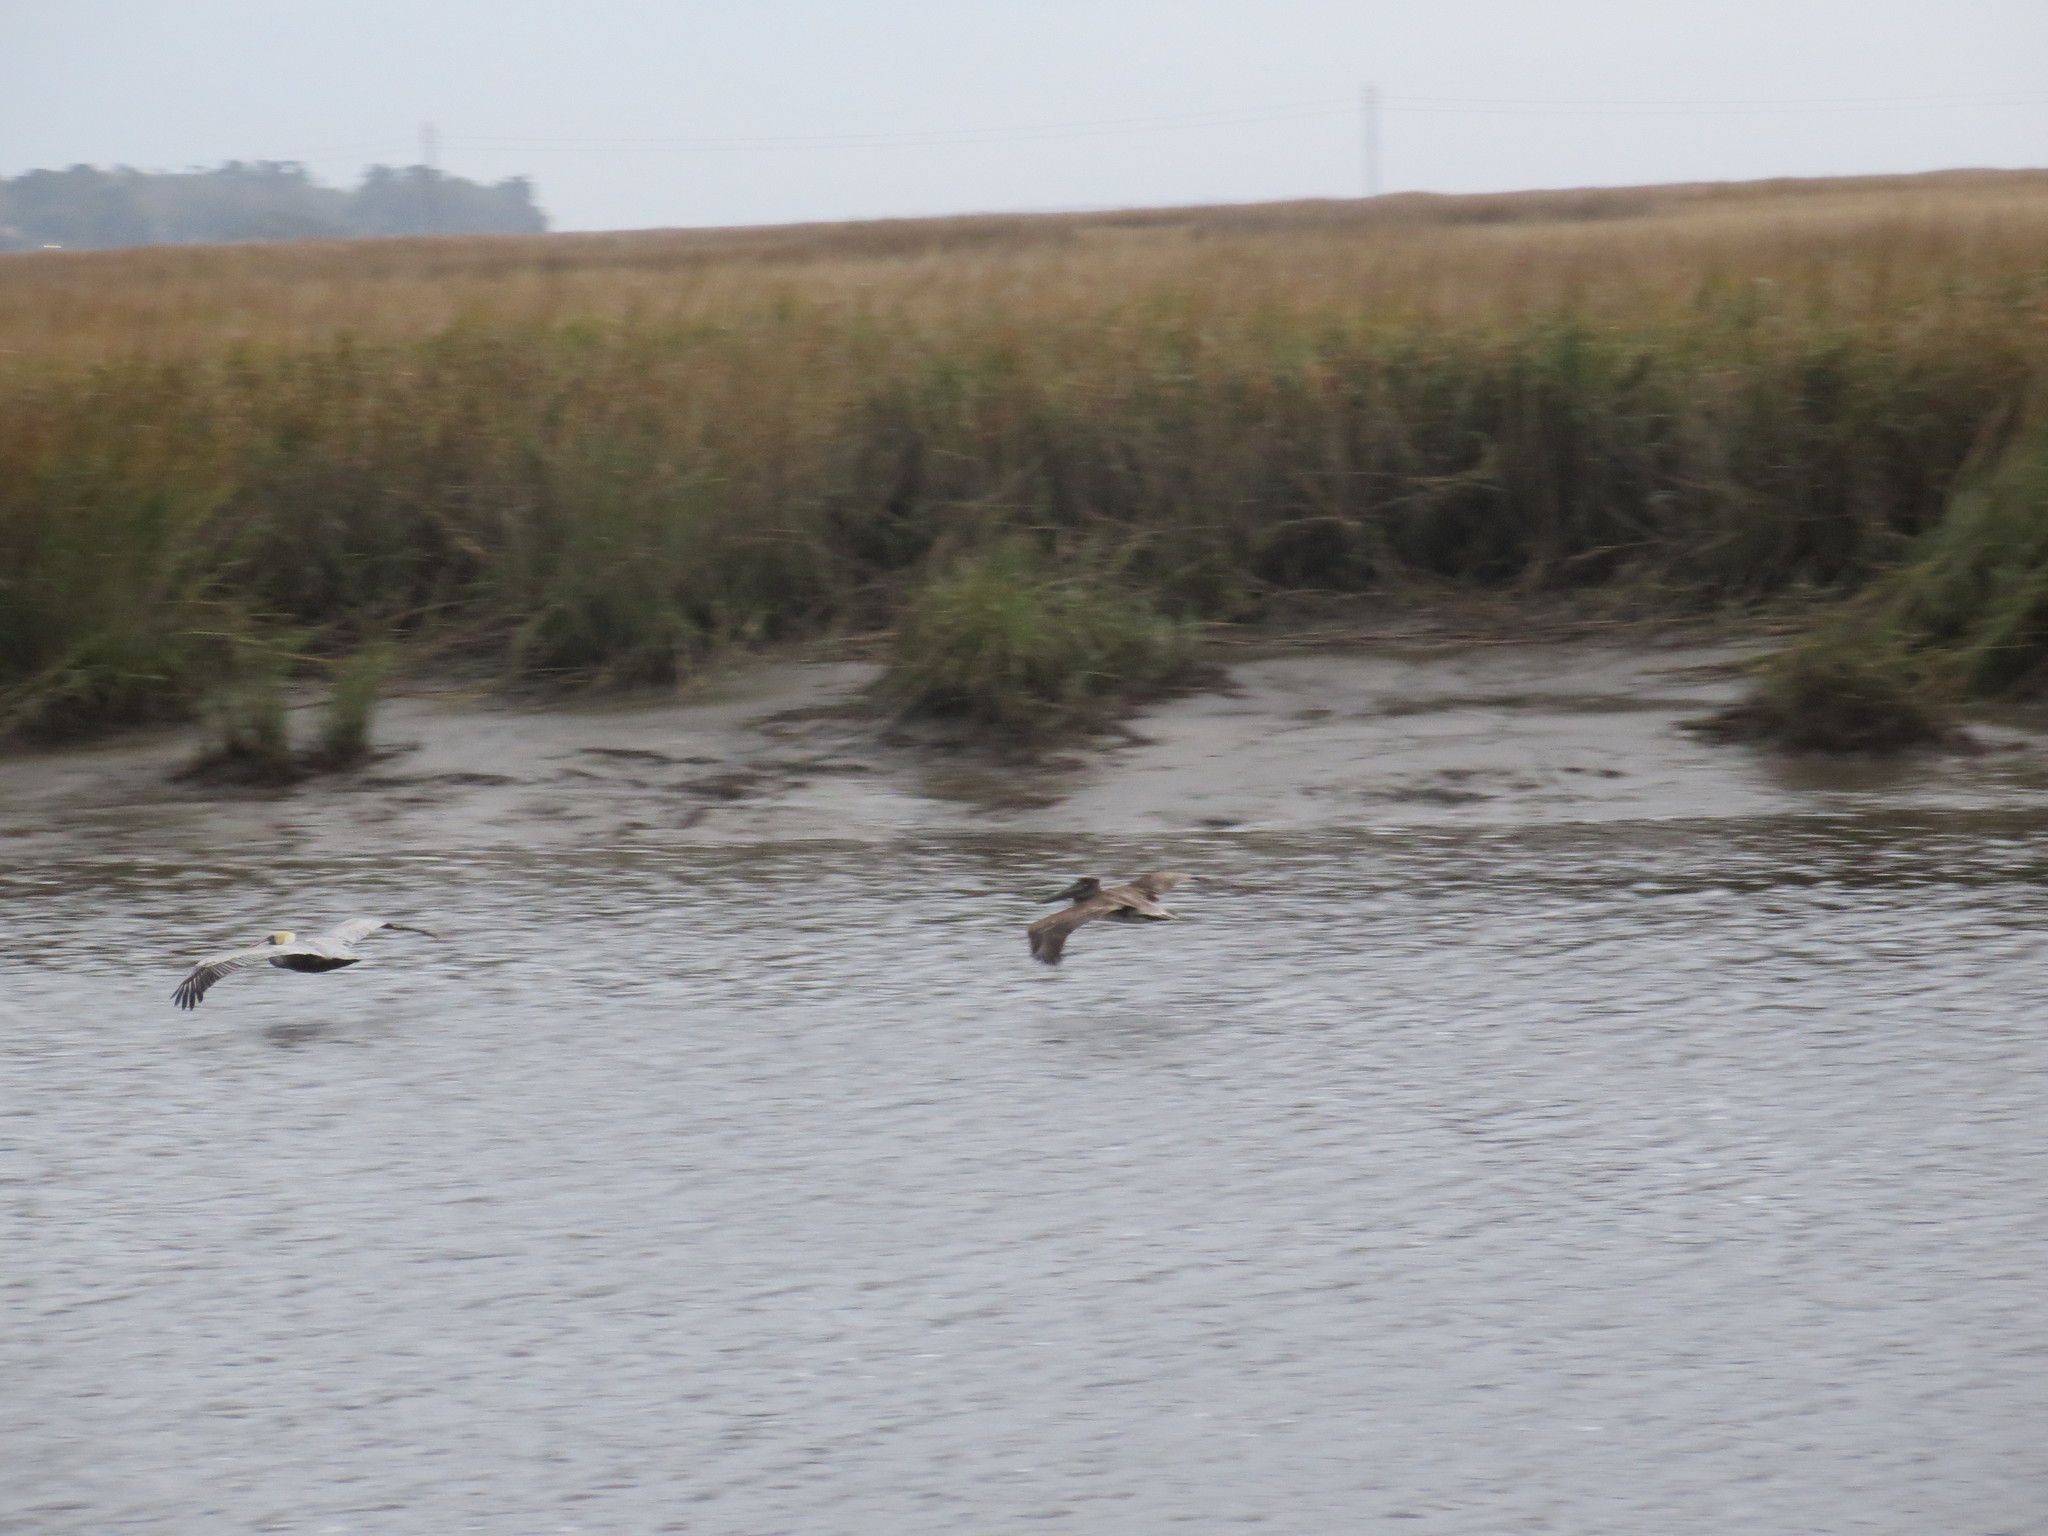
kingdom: Animalia
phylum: Chordata
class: Aves
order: Pelecaniformes
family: Pelecanidae
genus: Pelecanus
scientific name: Pelecanus occidentalis
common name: Brown pelican
